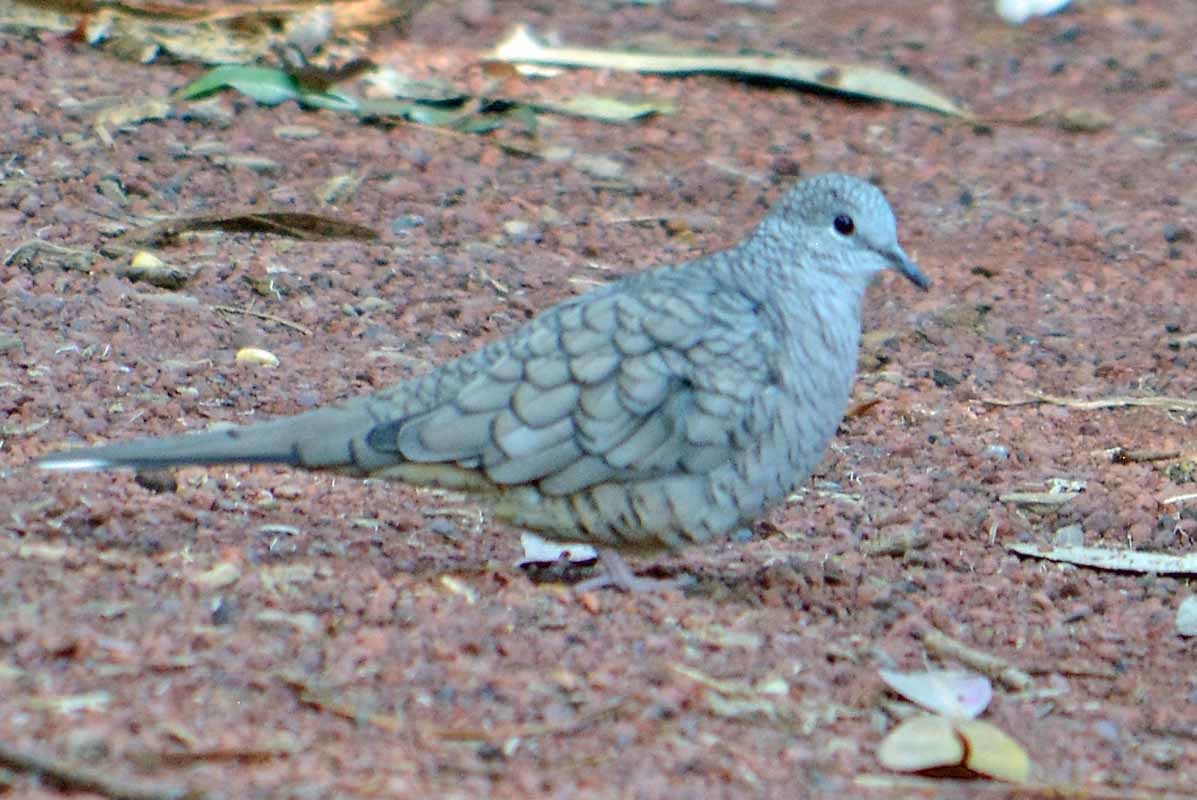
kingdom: Animalia
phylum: Chordata
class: Aves
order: Columbiformes
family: Columbidae
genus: Columbina
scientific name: Columbina inca
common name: Inca dove
